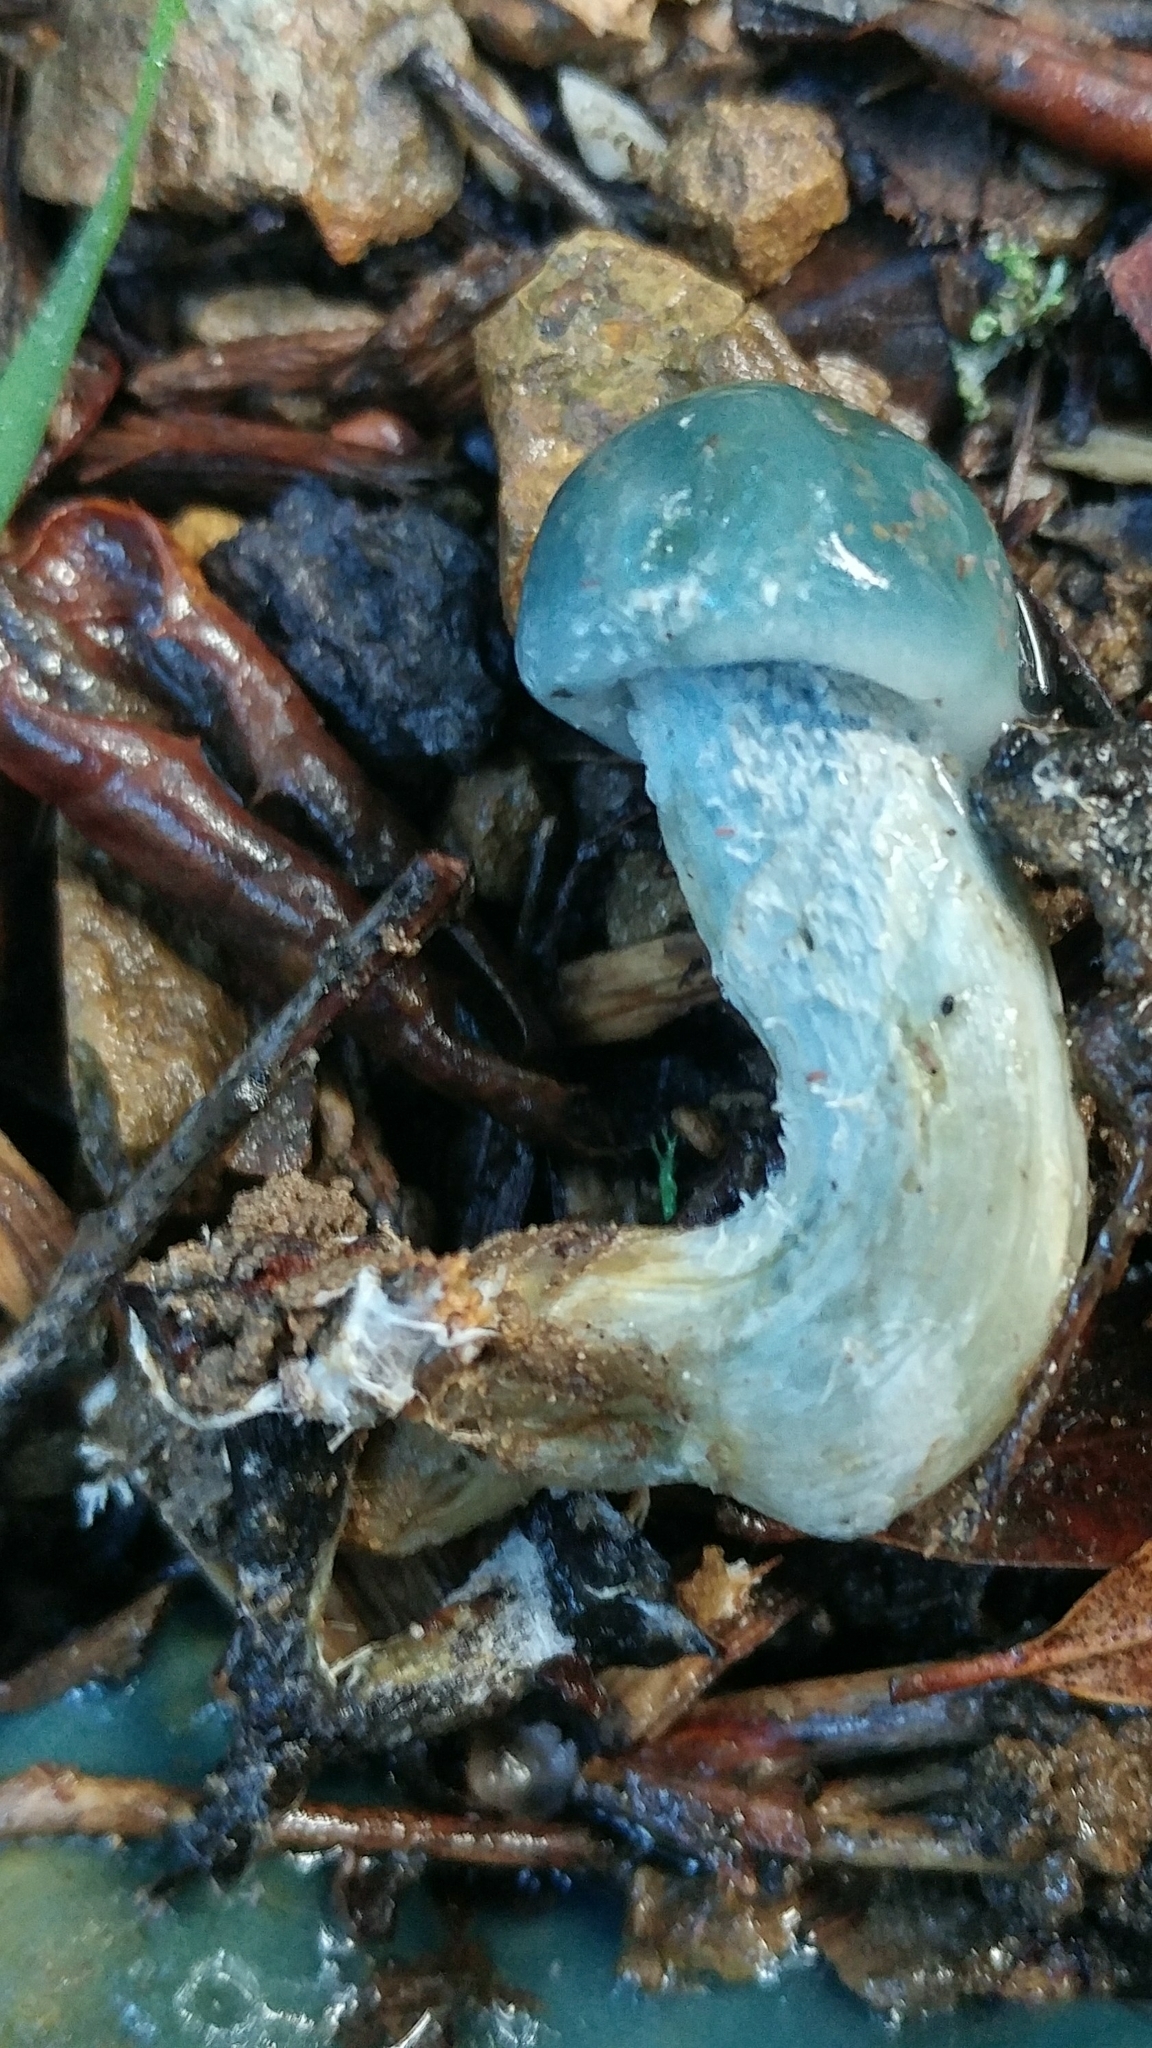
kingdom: Fungi
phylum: Basidiomycota
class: Agaricomycetes
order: Agaricales
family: Strophariaceae
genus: Stropharia
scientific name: Stropharia aeruginosa
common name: Verdigris roundhead
